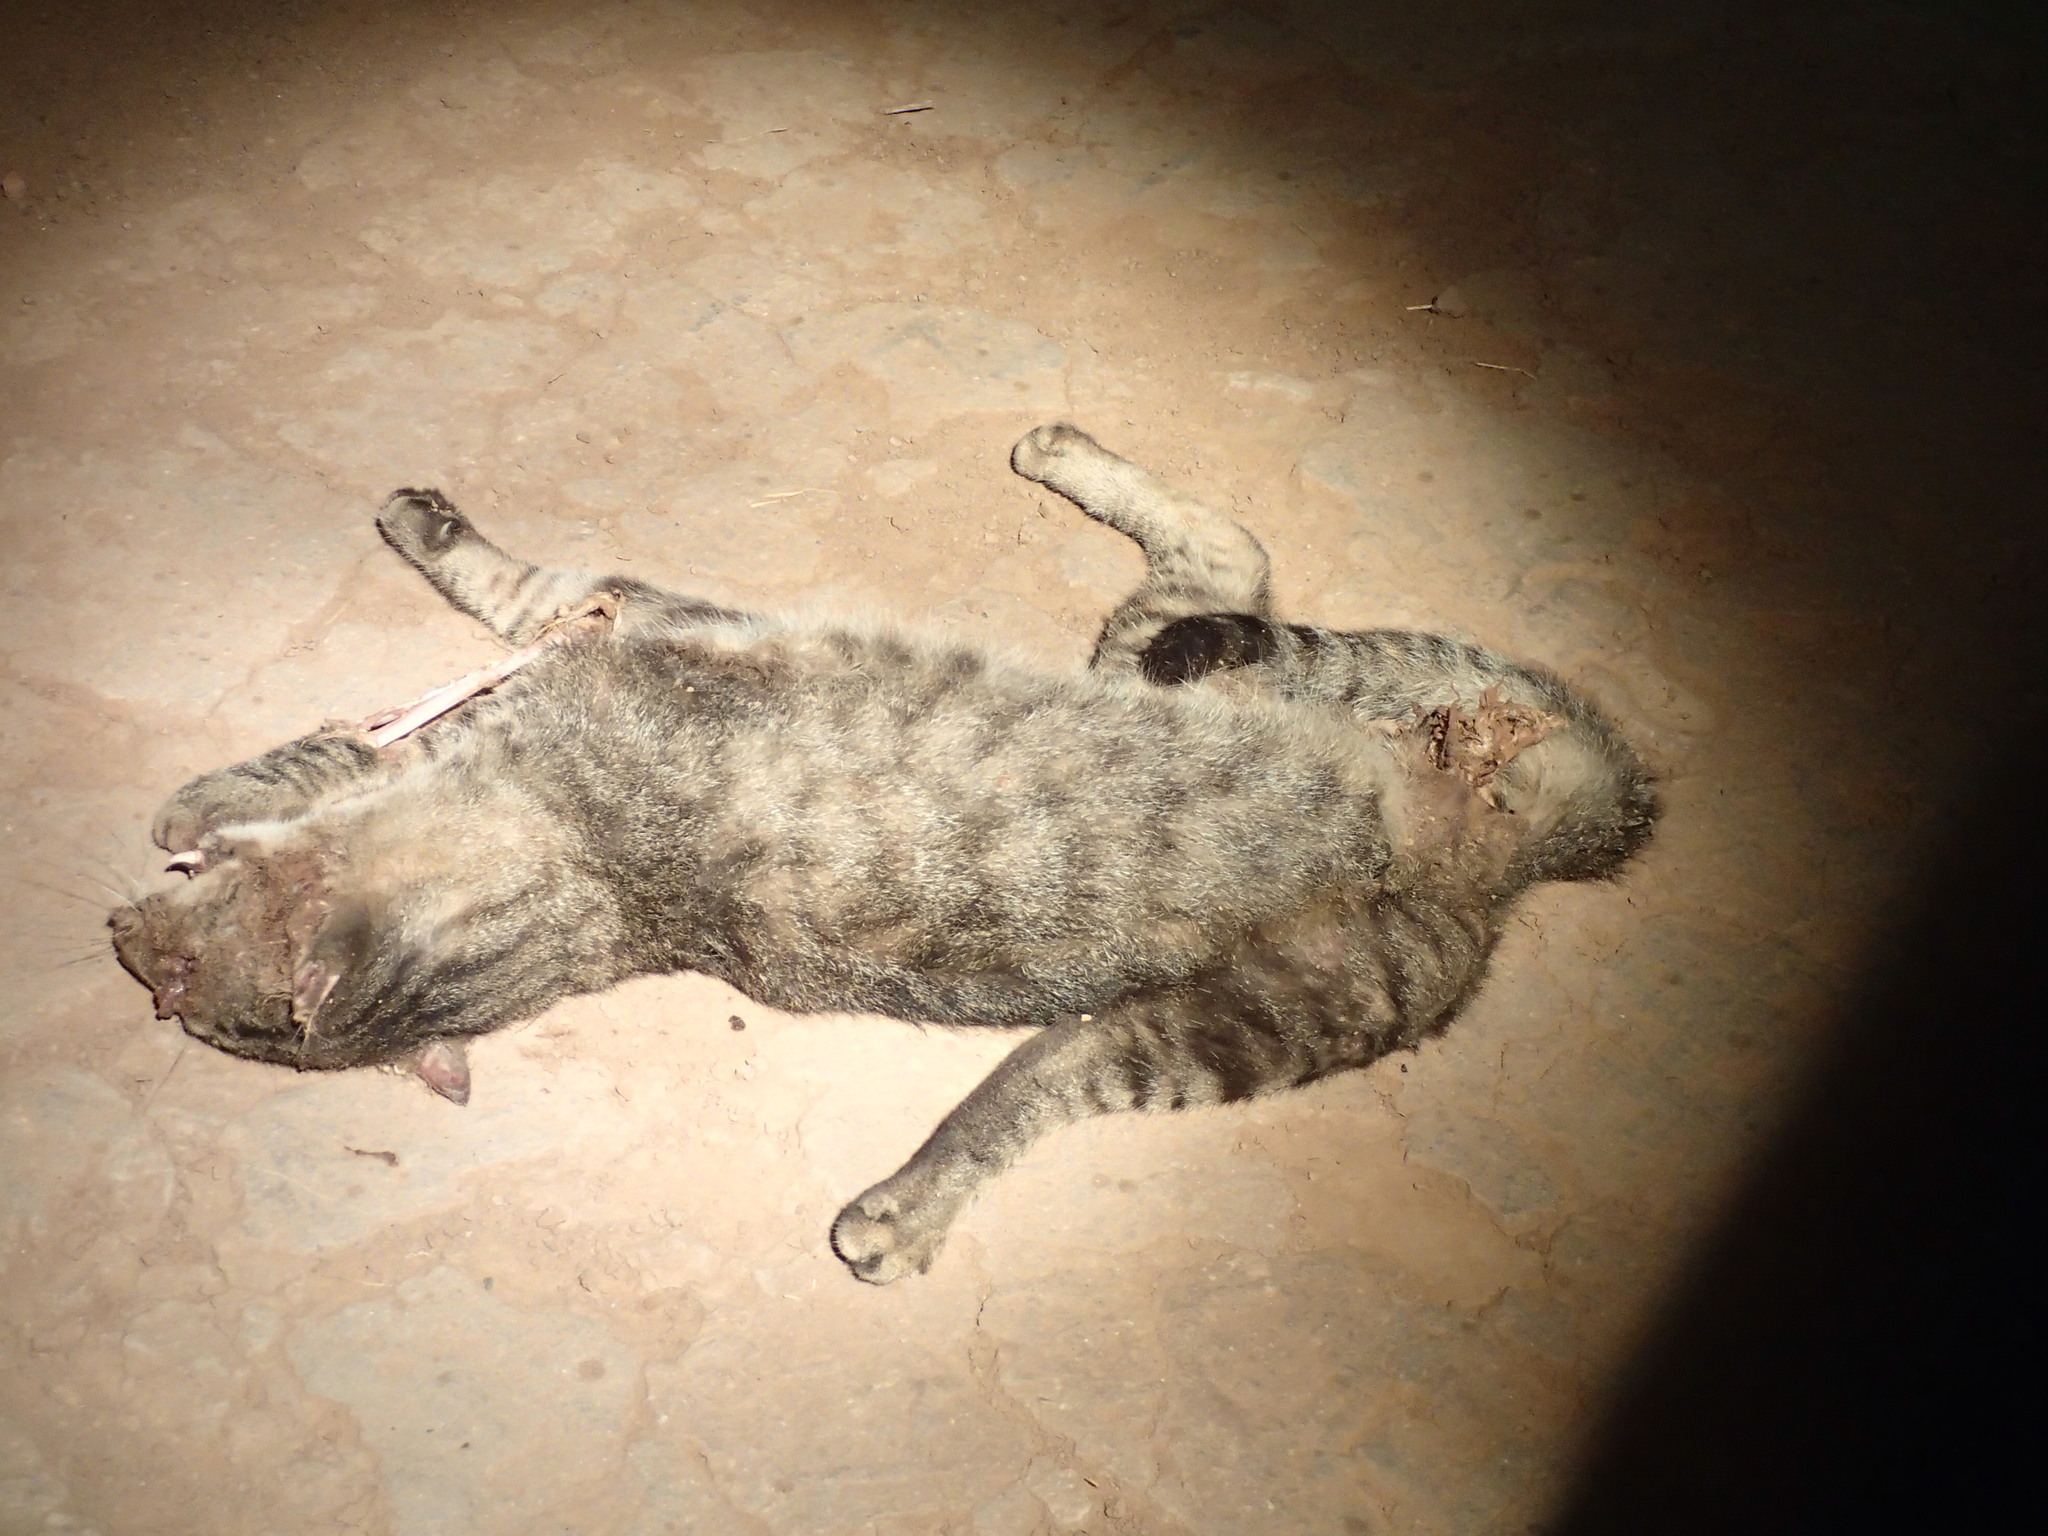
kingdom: Animalia
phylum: Chordata
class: Mammalia
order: Carnivora
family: Felidae
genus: Felis
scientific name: Felis catus
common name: Domestic cat
